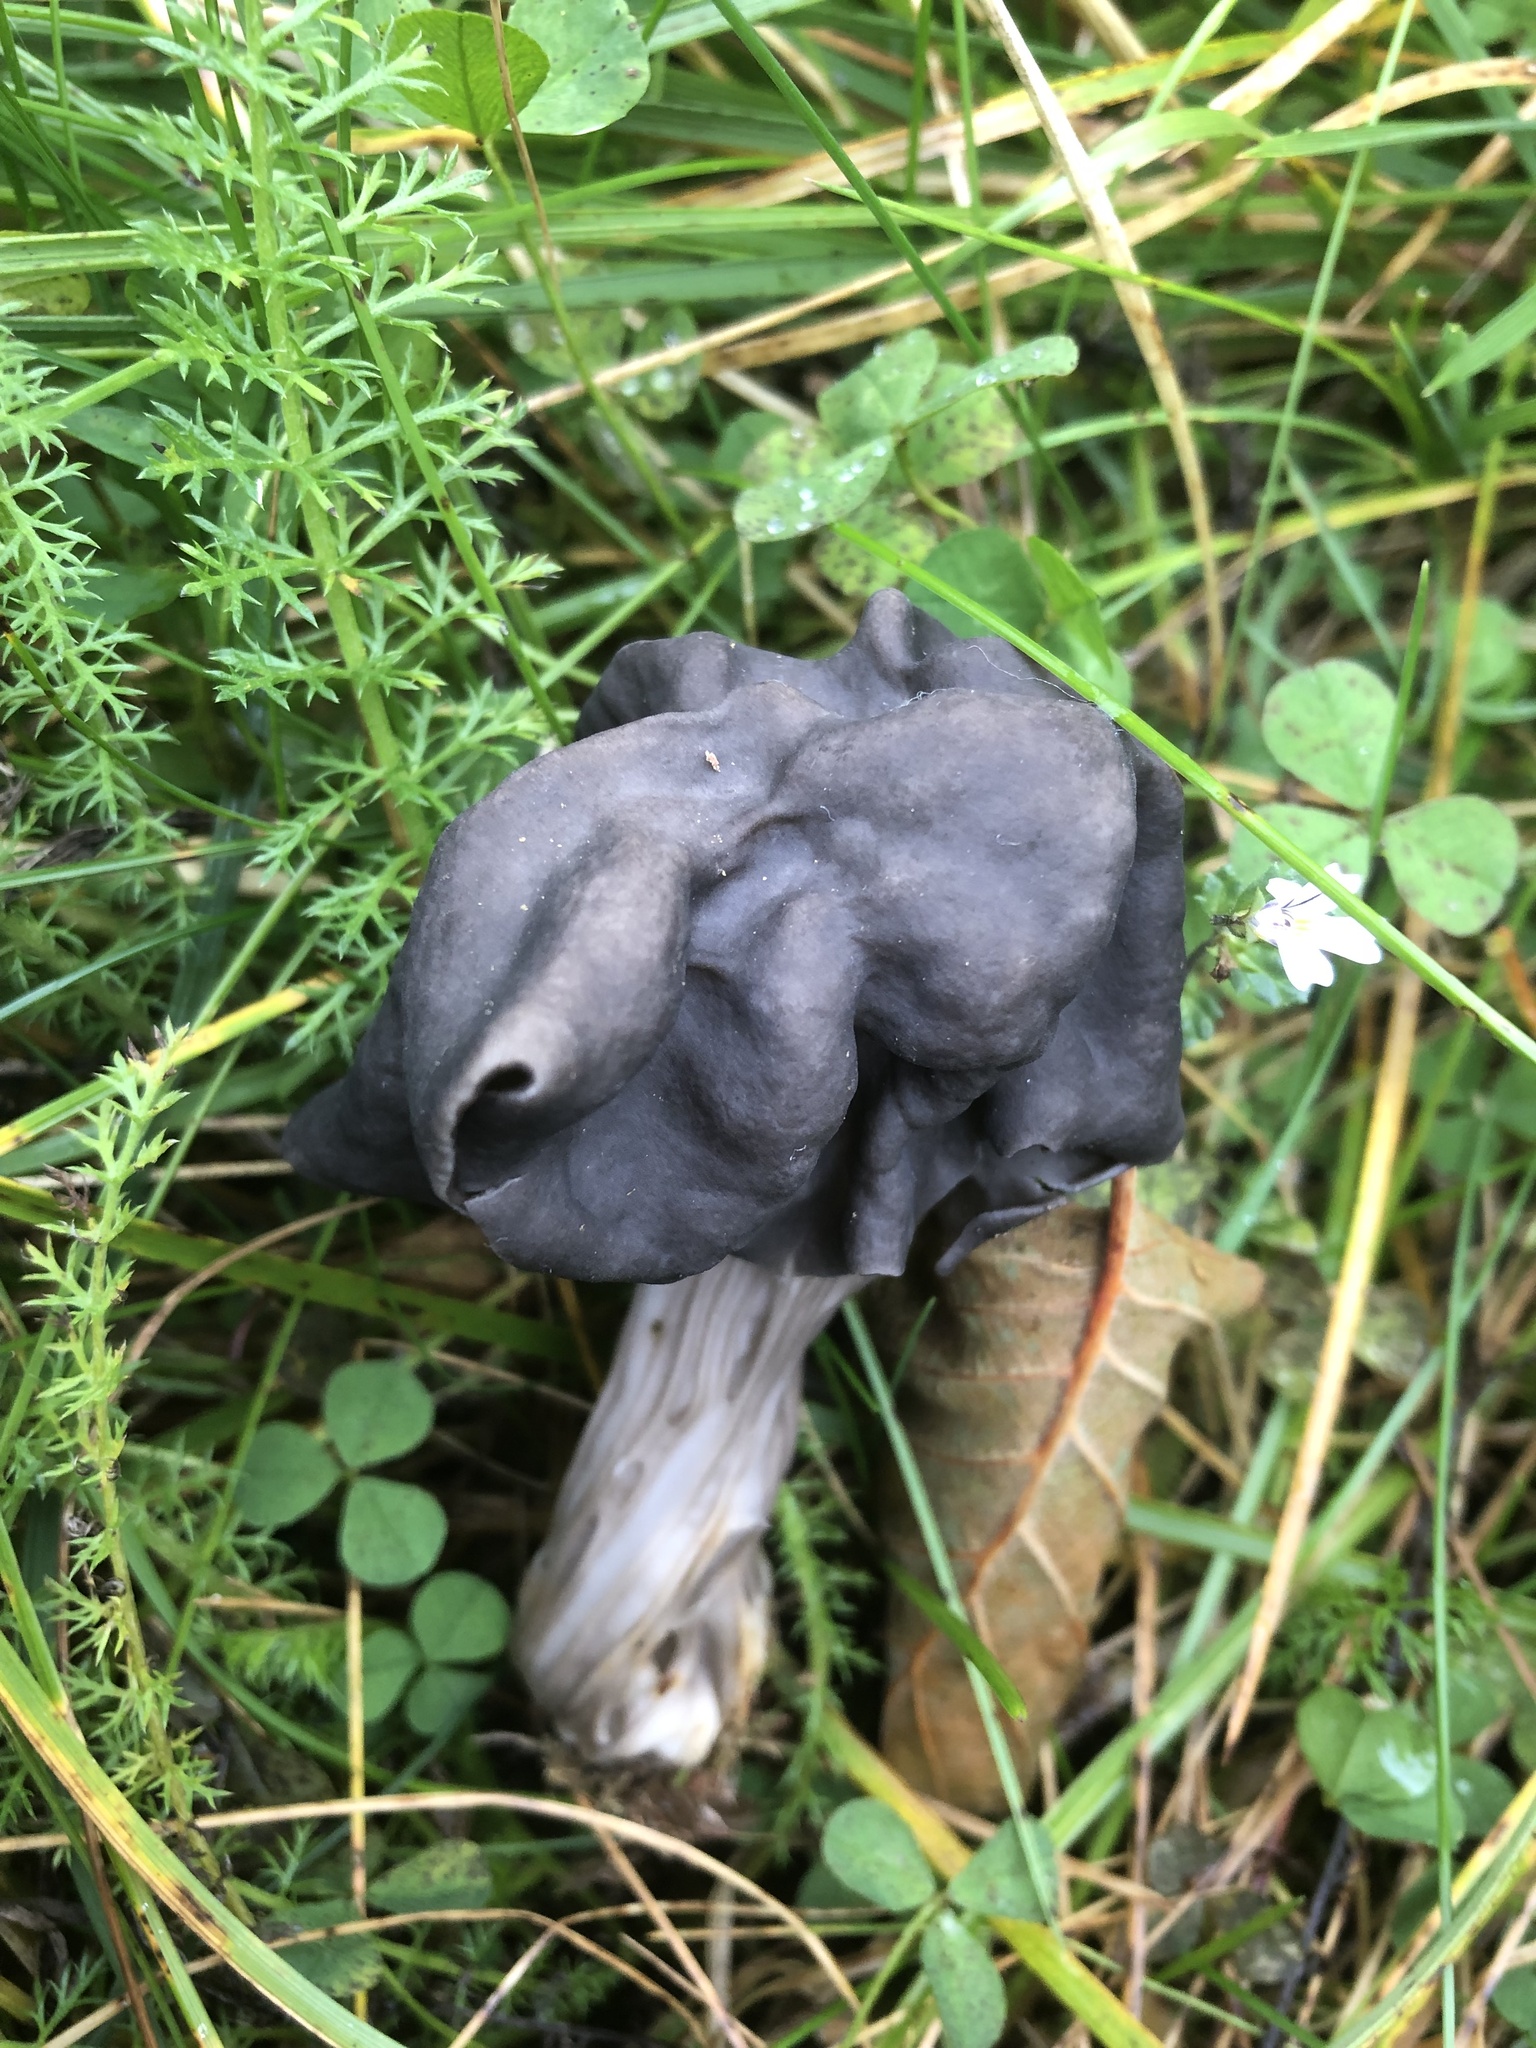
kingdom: Fungi
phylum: Ascomycota
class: Pezizomycetes
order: Pezizales
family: Helvellaceae
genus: Helvella
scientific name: Helvella lacunosa
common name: Elfin saddle
